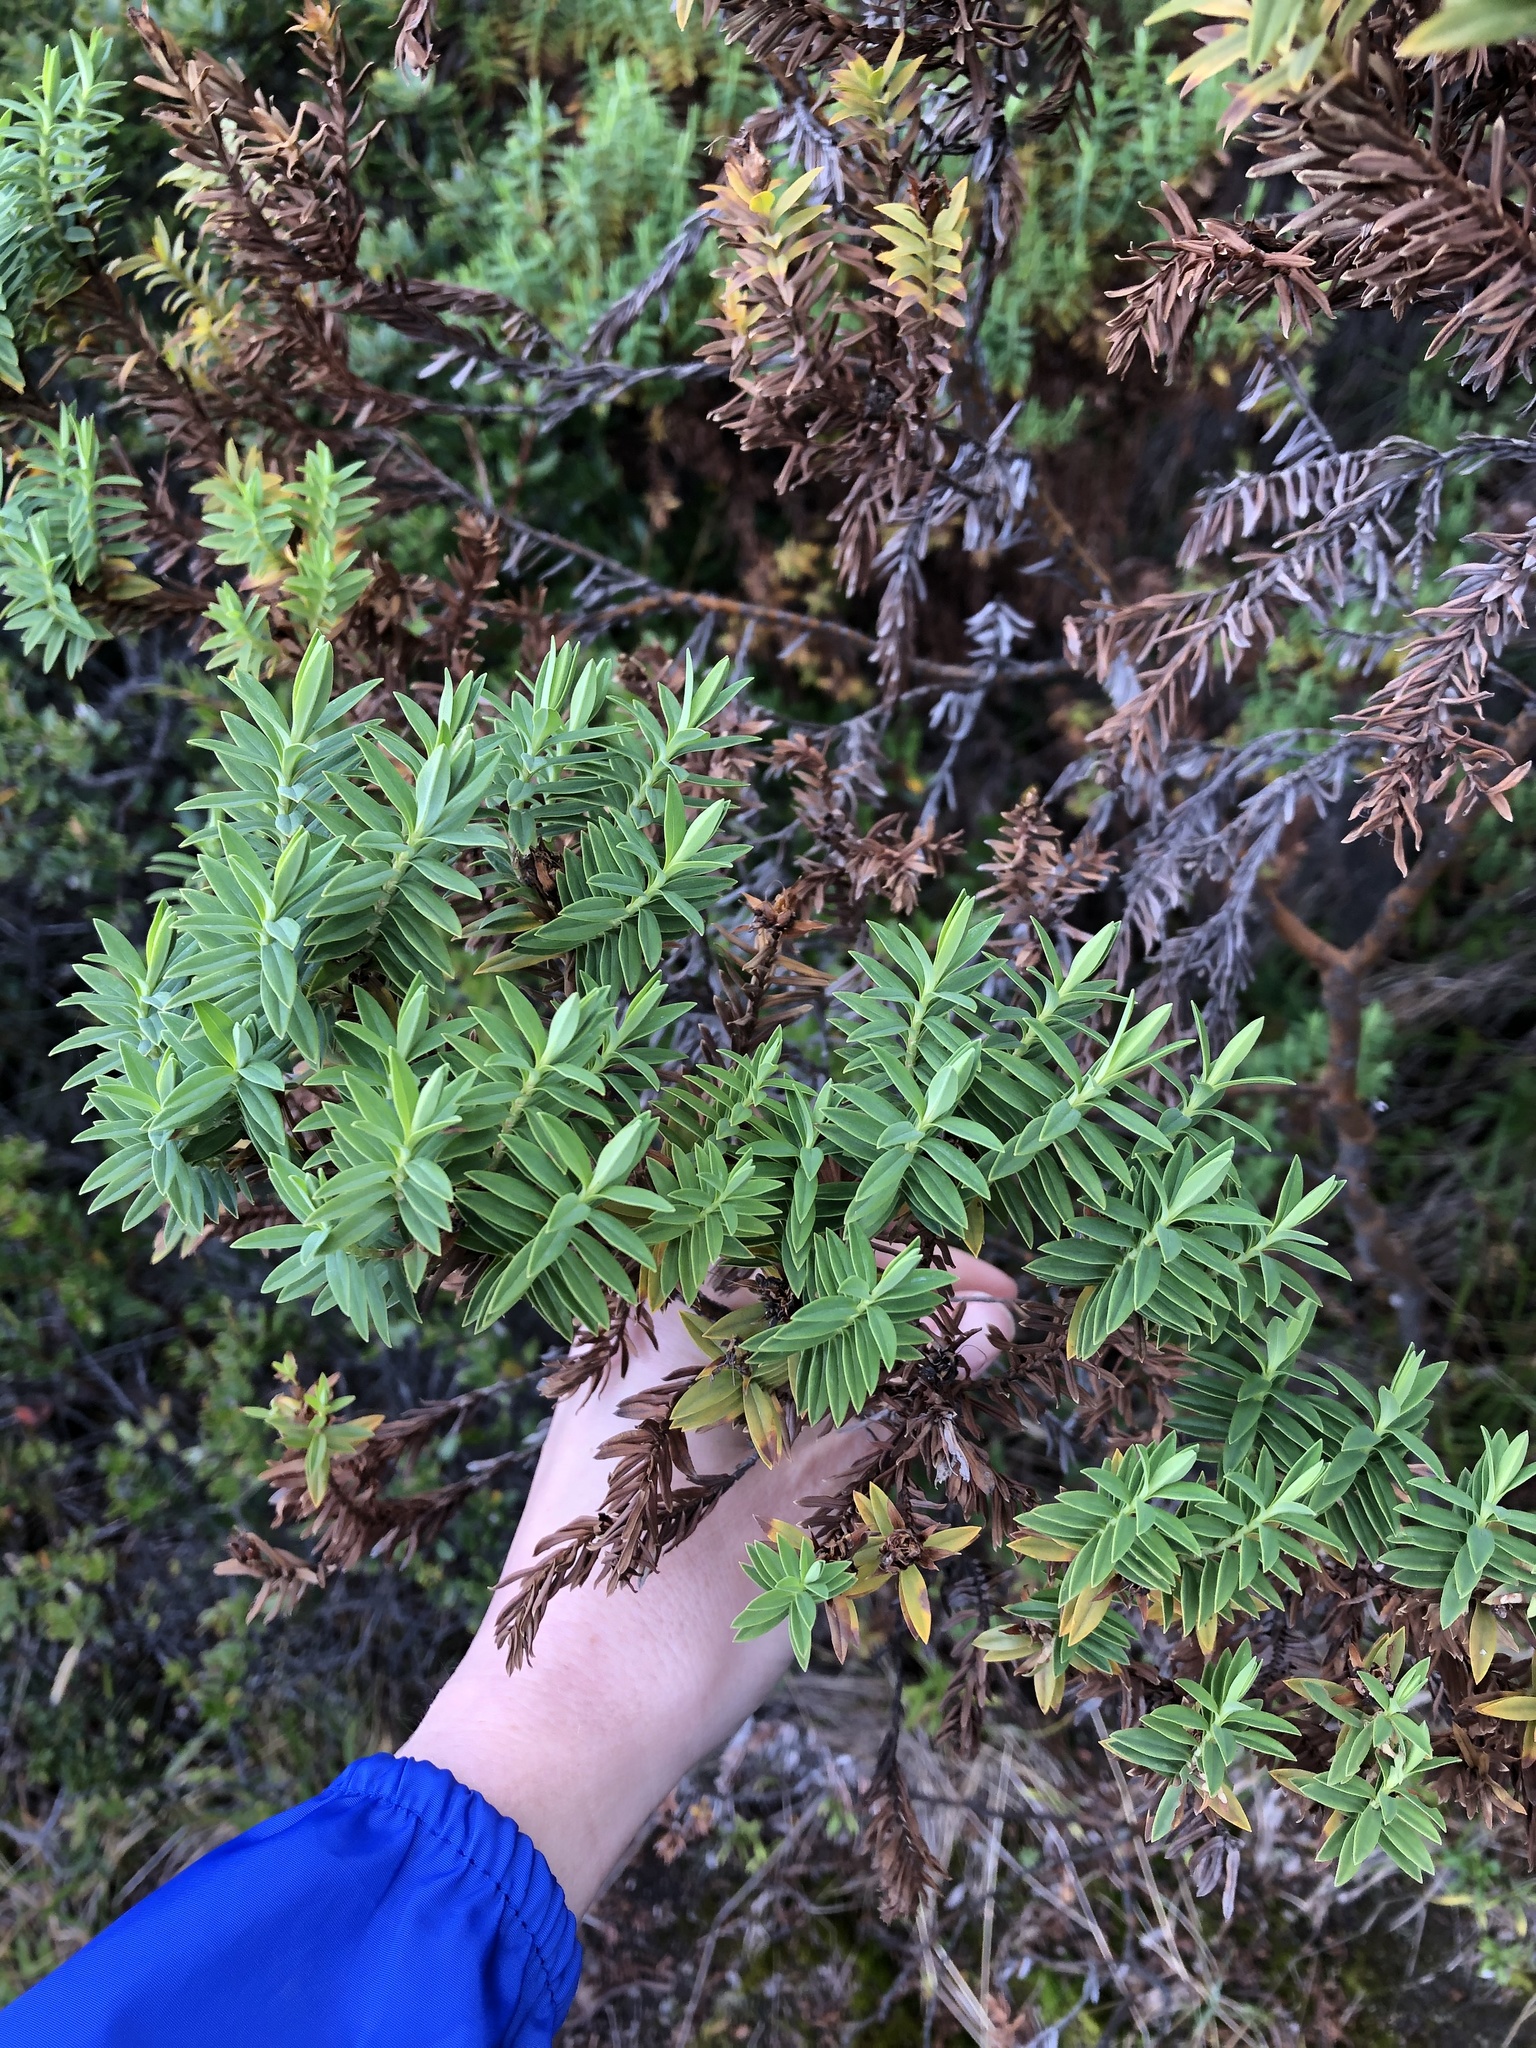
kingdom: Plantae
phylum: Tracheophyta
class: Magnoliopsida
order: Malpighiales
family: Hypericaceae
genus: Hypericum
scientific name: Hypericum irazuense
